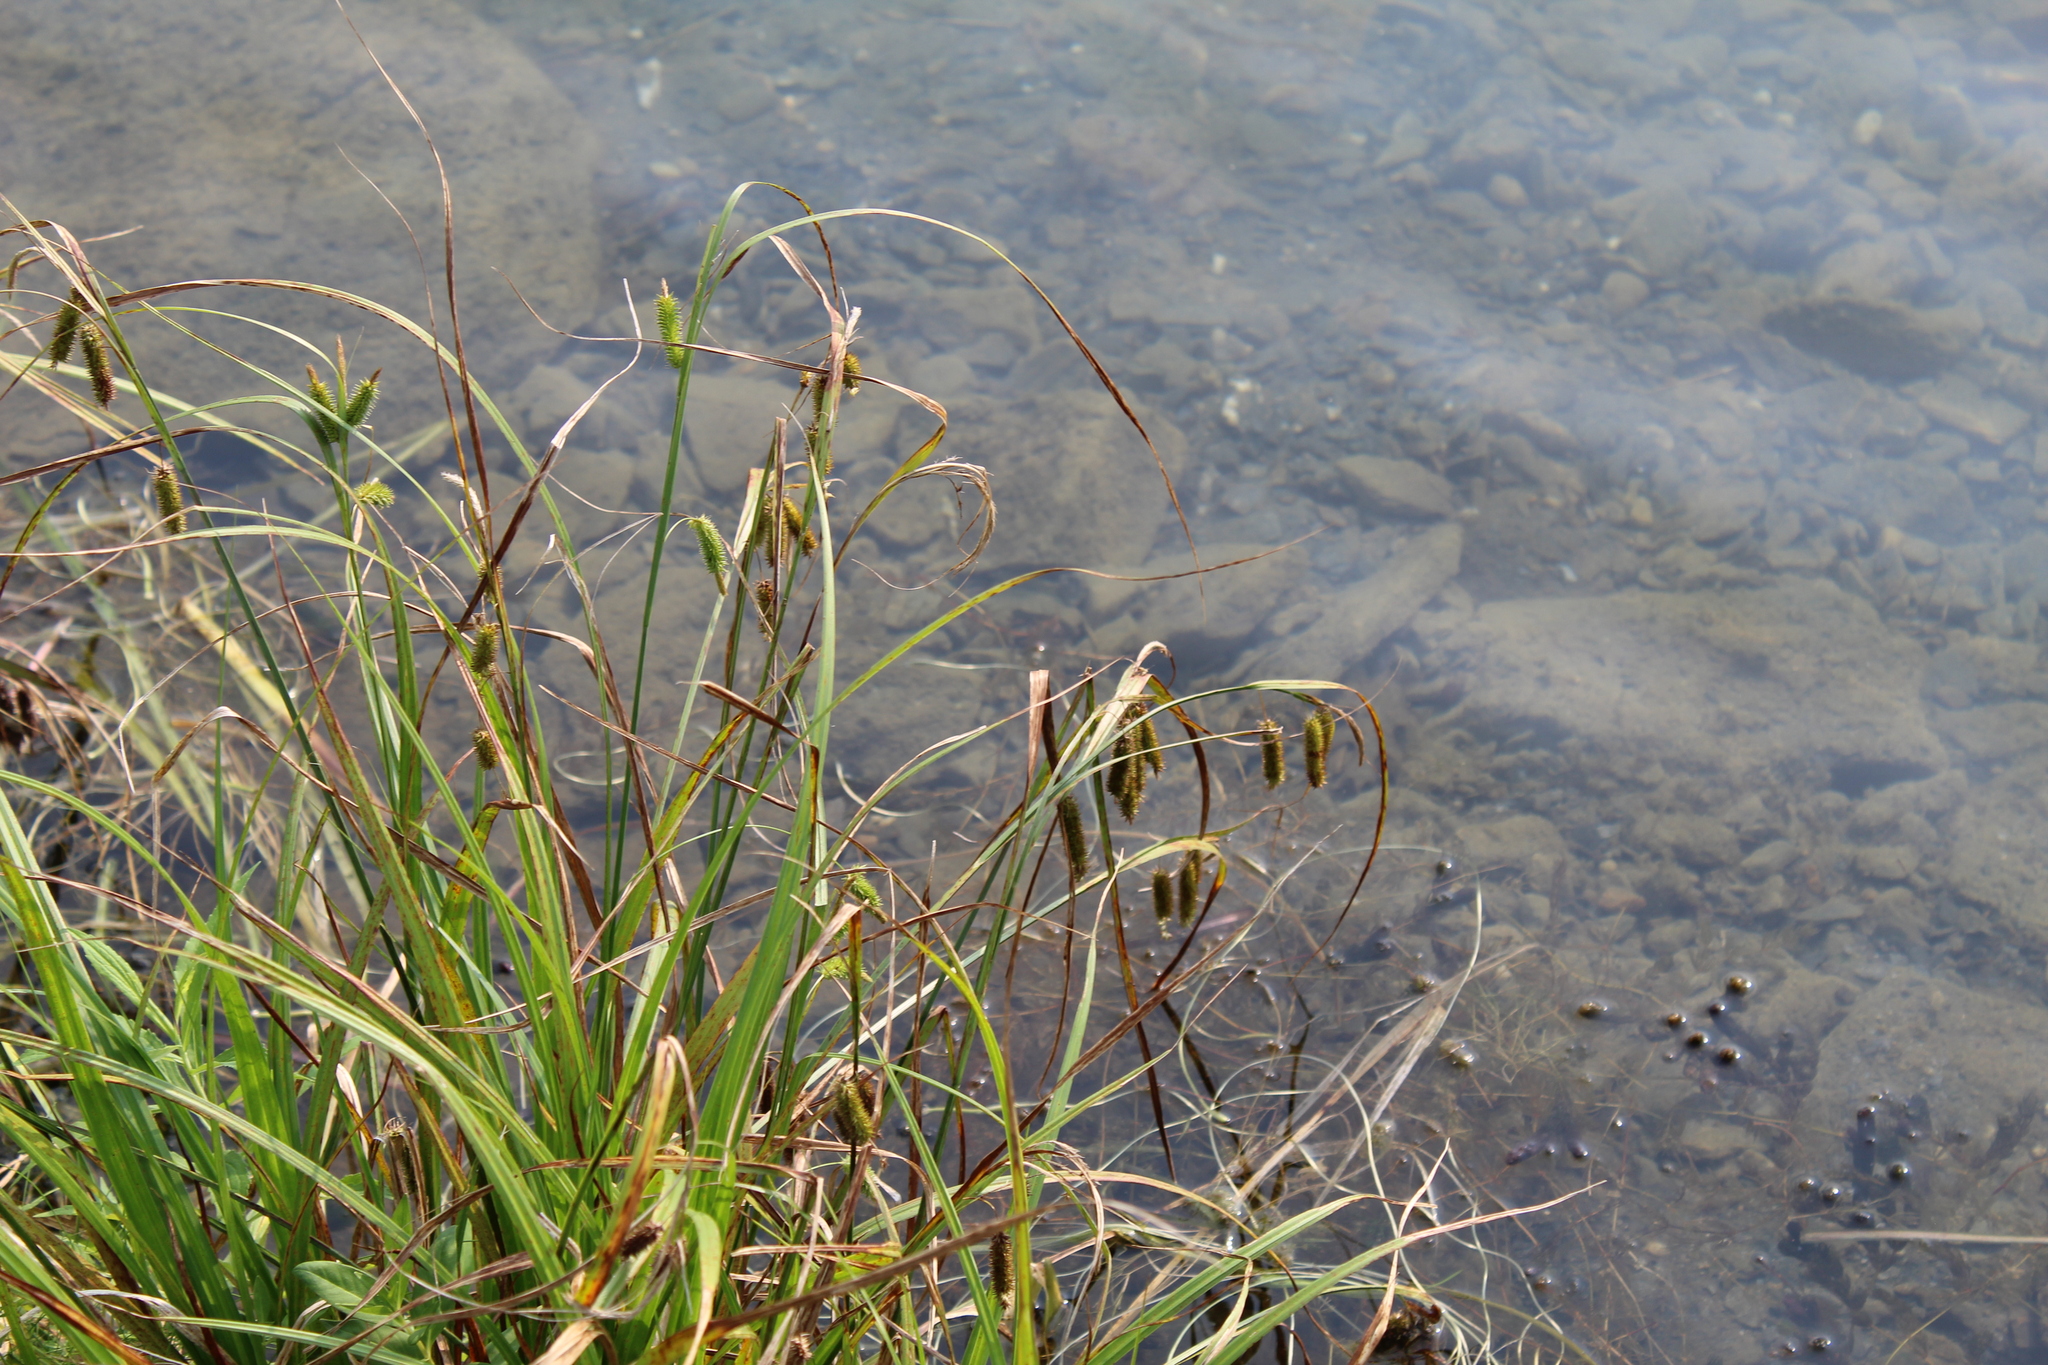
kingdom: Plantae
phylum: Tracheophyta
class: Liliopsida
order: Poales
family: Cyperaceae
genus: Carex
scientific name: Carex pseudocyperus
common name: Cyperus sedge
